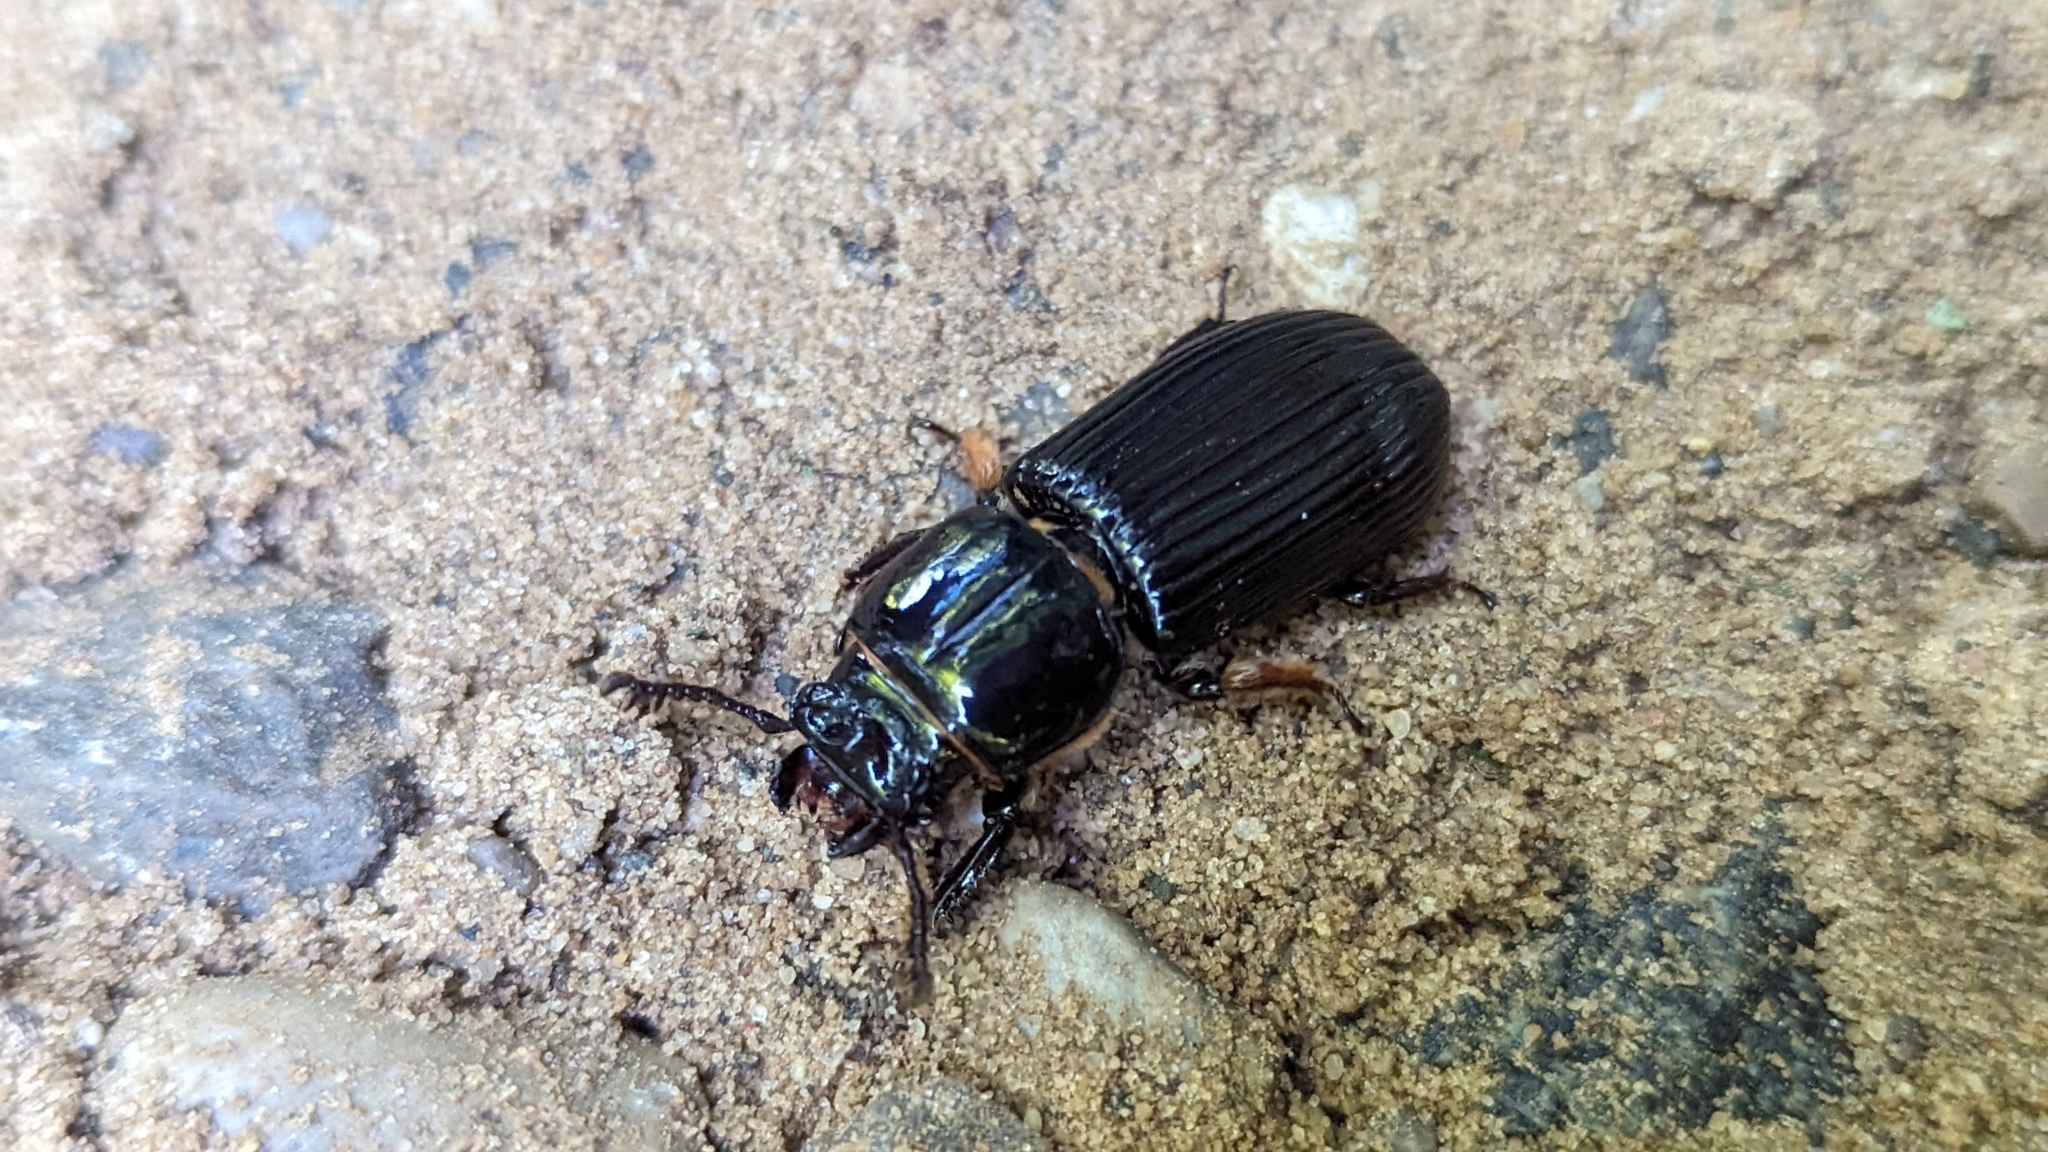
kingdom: Animalia
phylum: Arthropoda
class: Insecta
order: Coleoptera
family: Passalidae
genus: Odontotaenius
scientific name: Odontotaenius disjunctus
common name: Patent leather beetle
